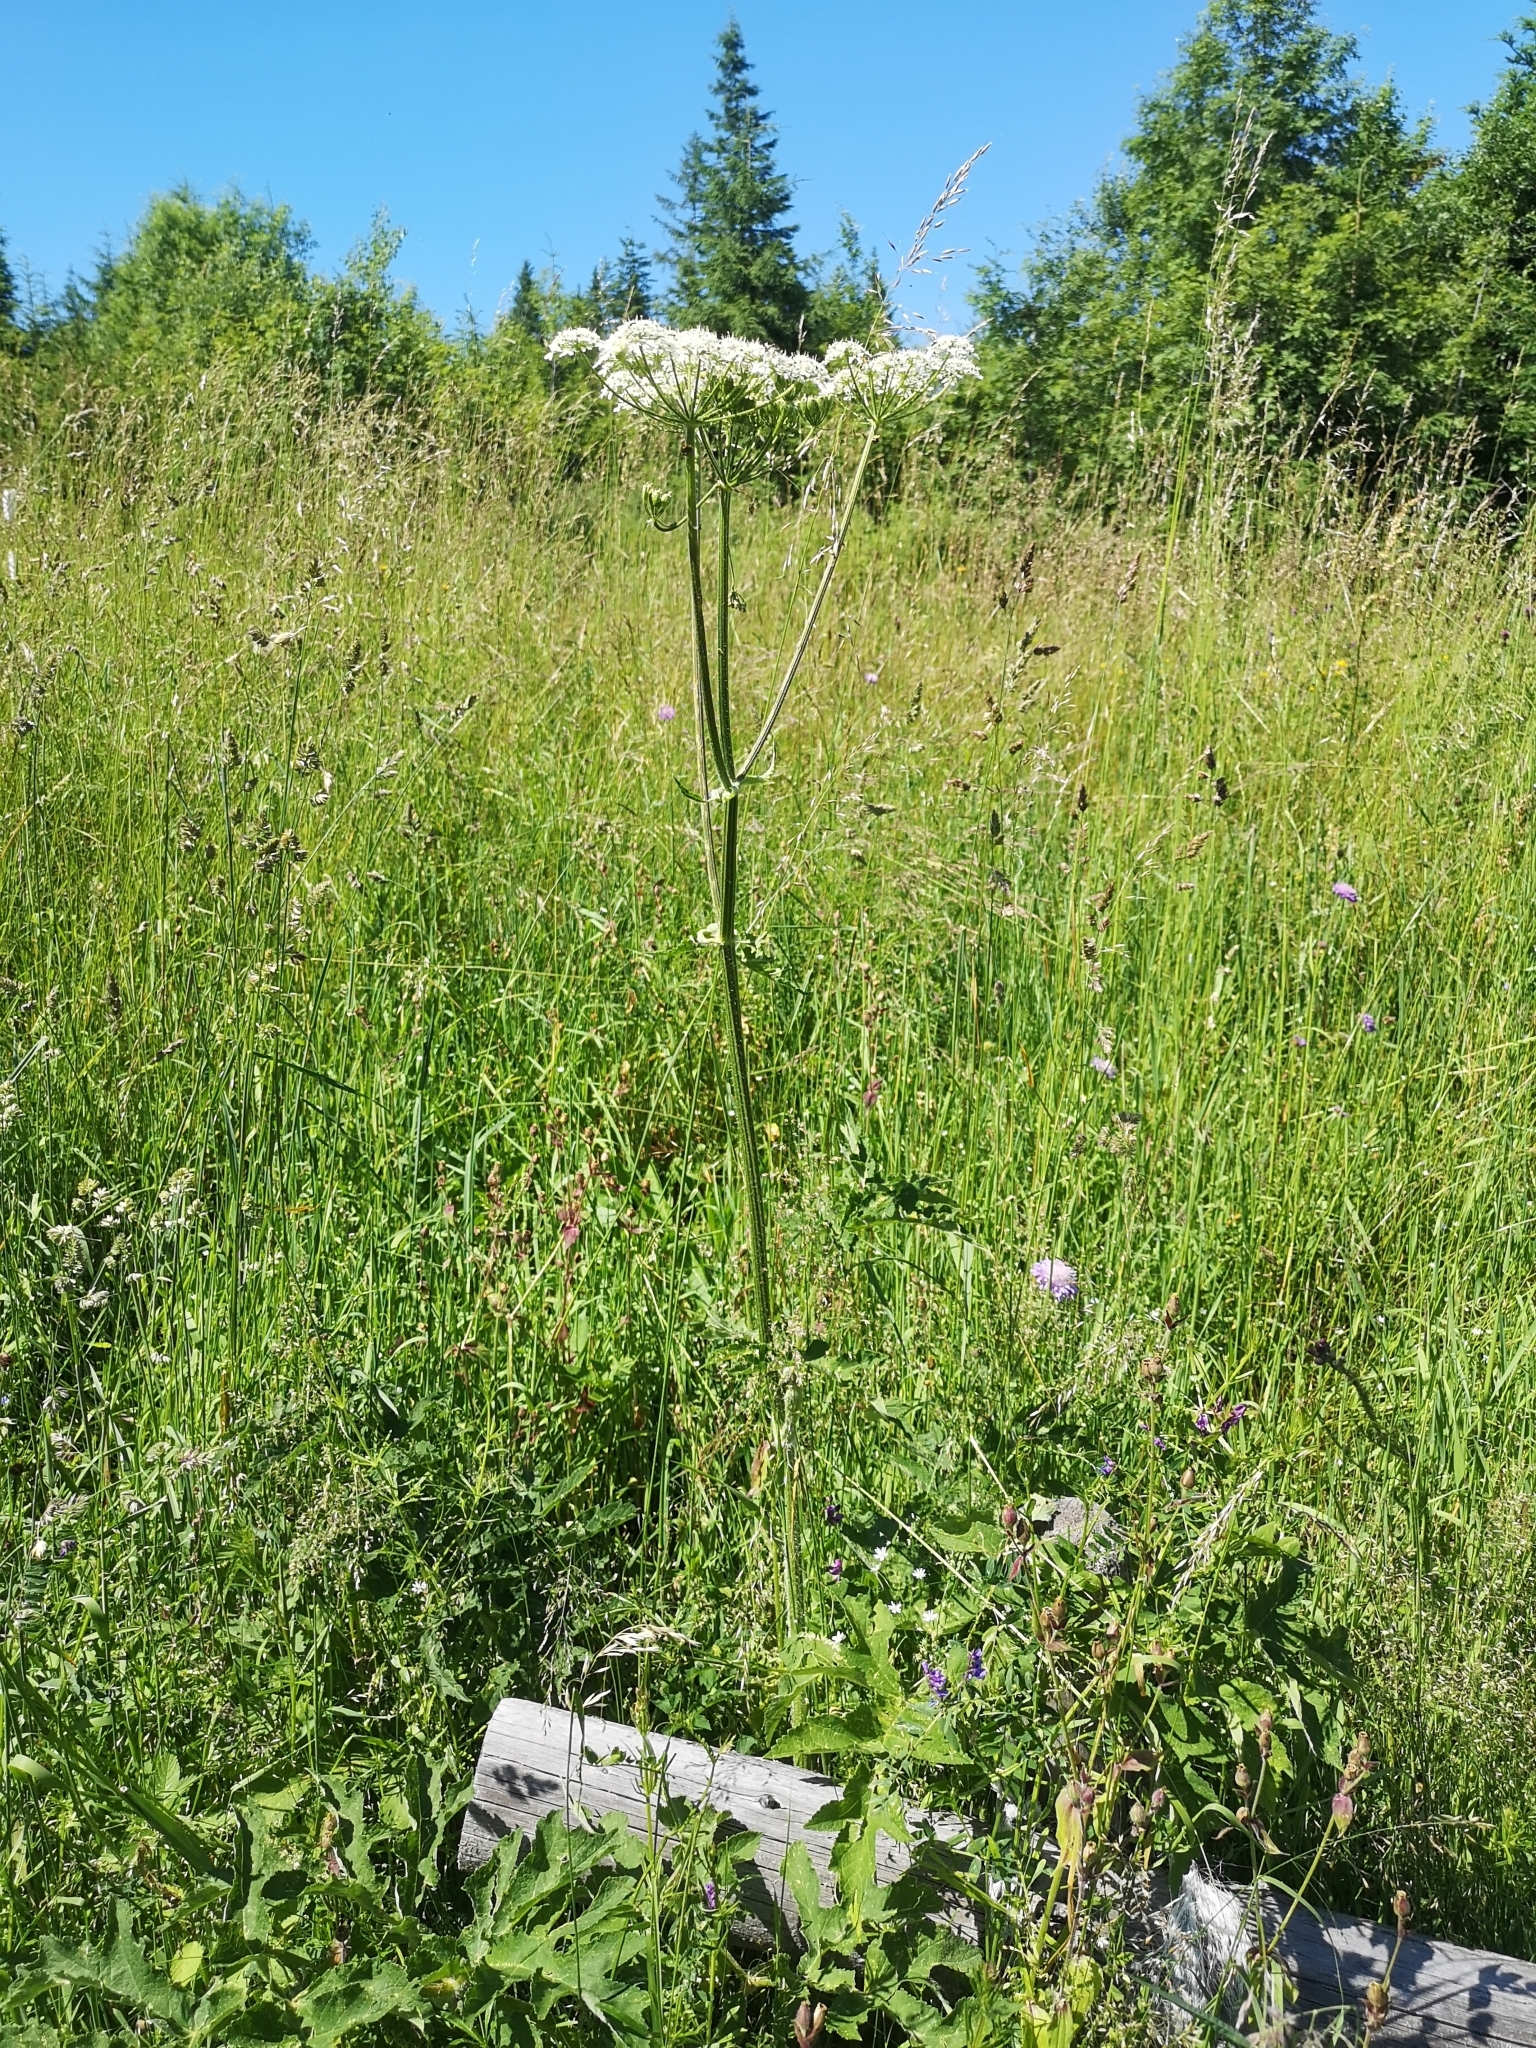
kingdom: Plantae
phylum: Tracheophyta
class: Magnoliopsida
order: Apiales
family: Apiaceae
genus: Heracleum
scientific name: Heracleum sphondylium
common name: Hogweed
